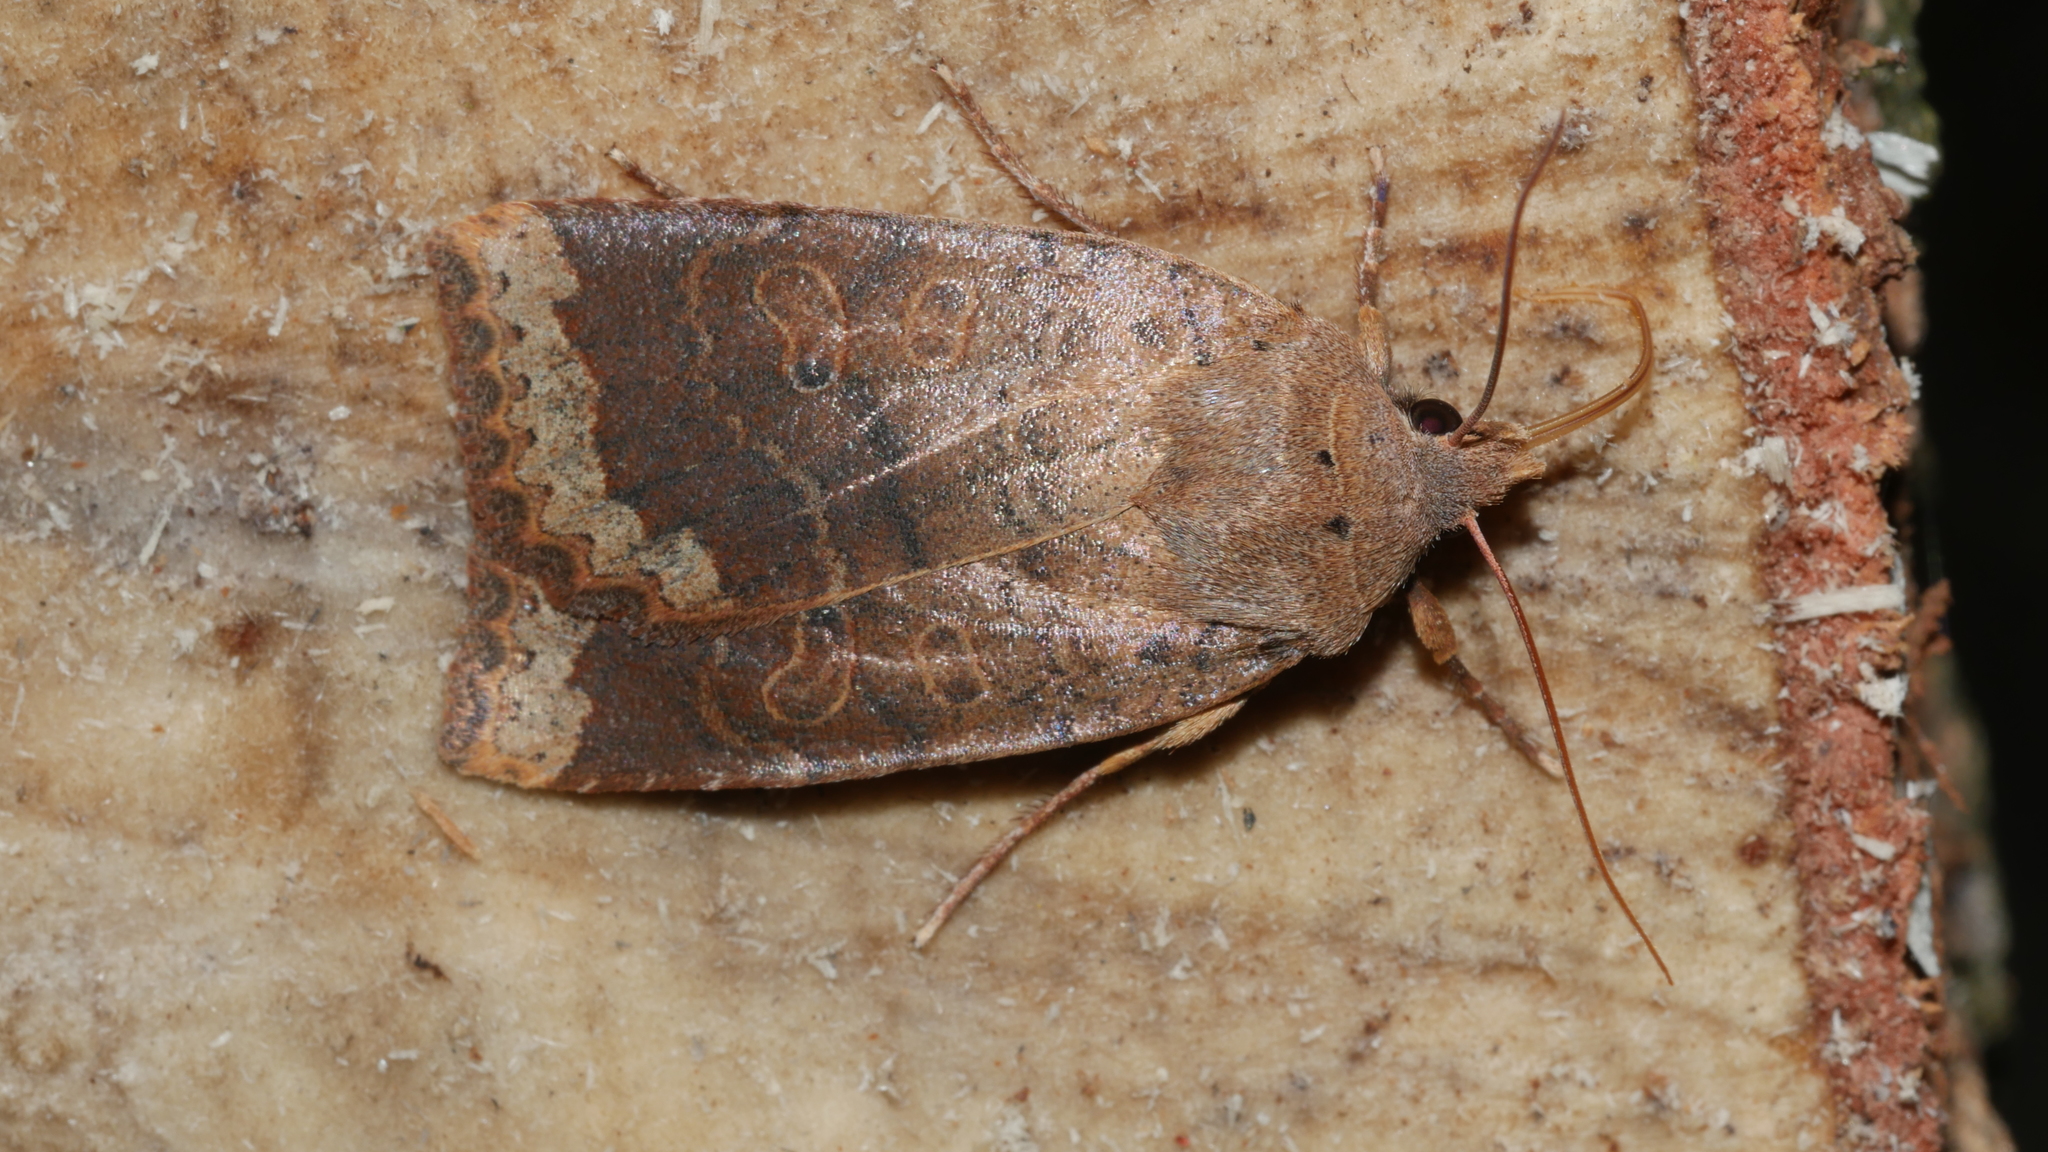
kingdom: Animalia
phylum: Arthropoda
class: Insecta
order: Lepidoptera
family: Noctuidae
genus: Sericaglaea
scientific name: Sericaglaea signata
